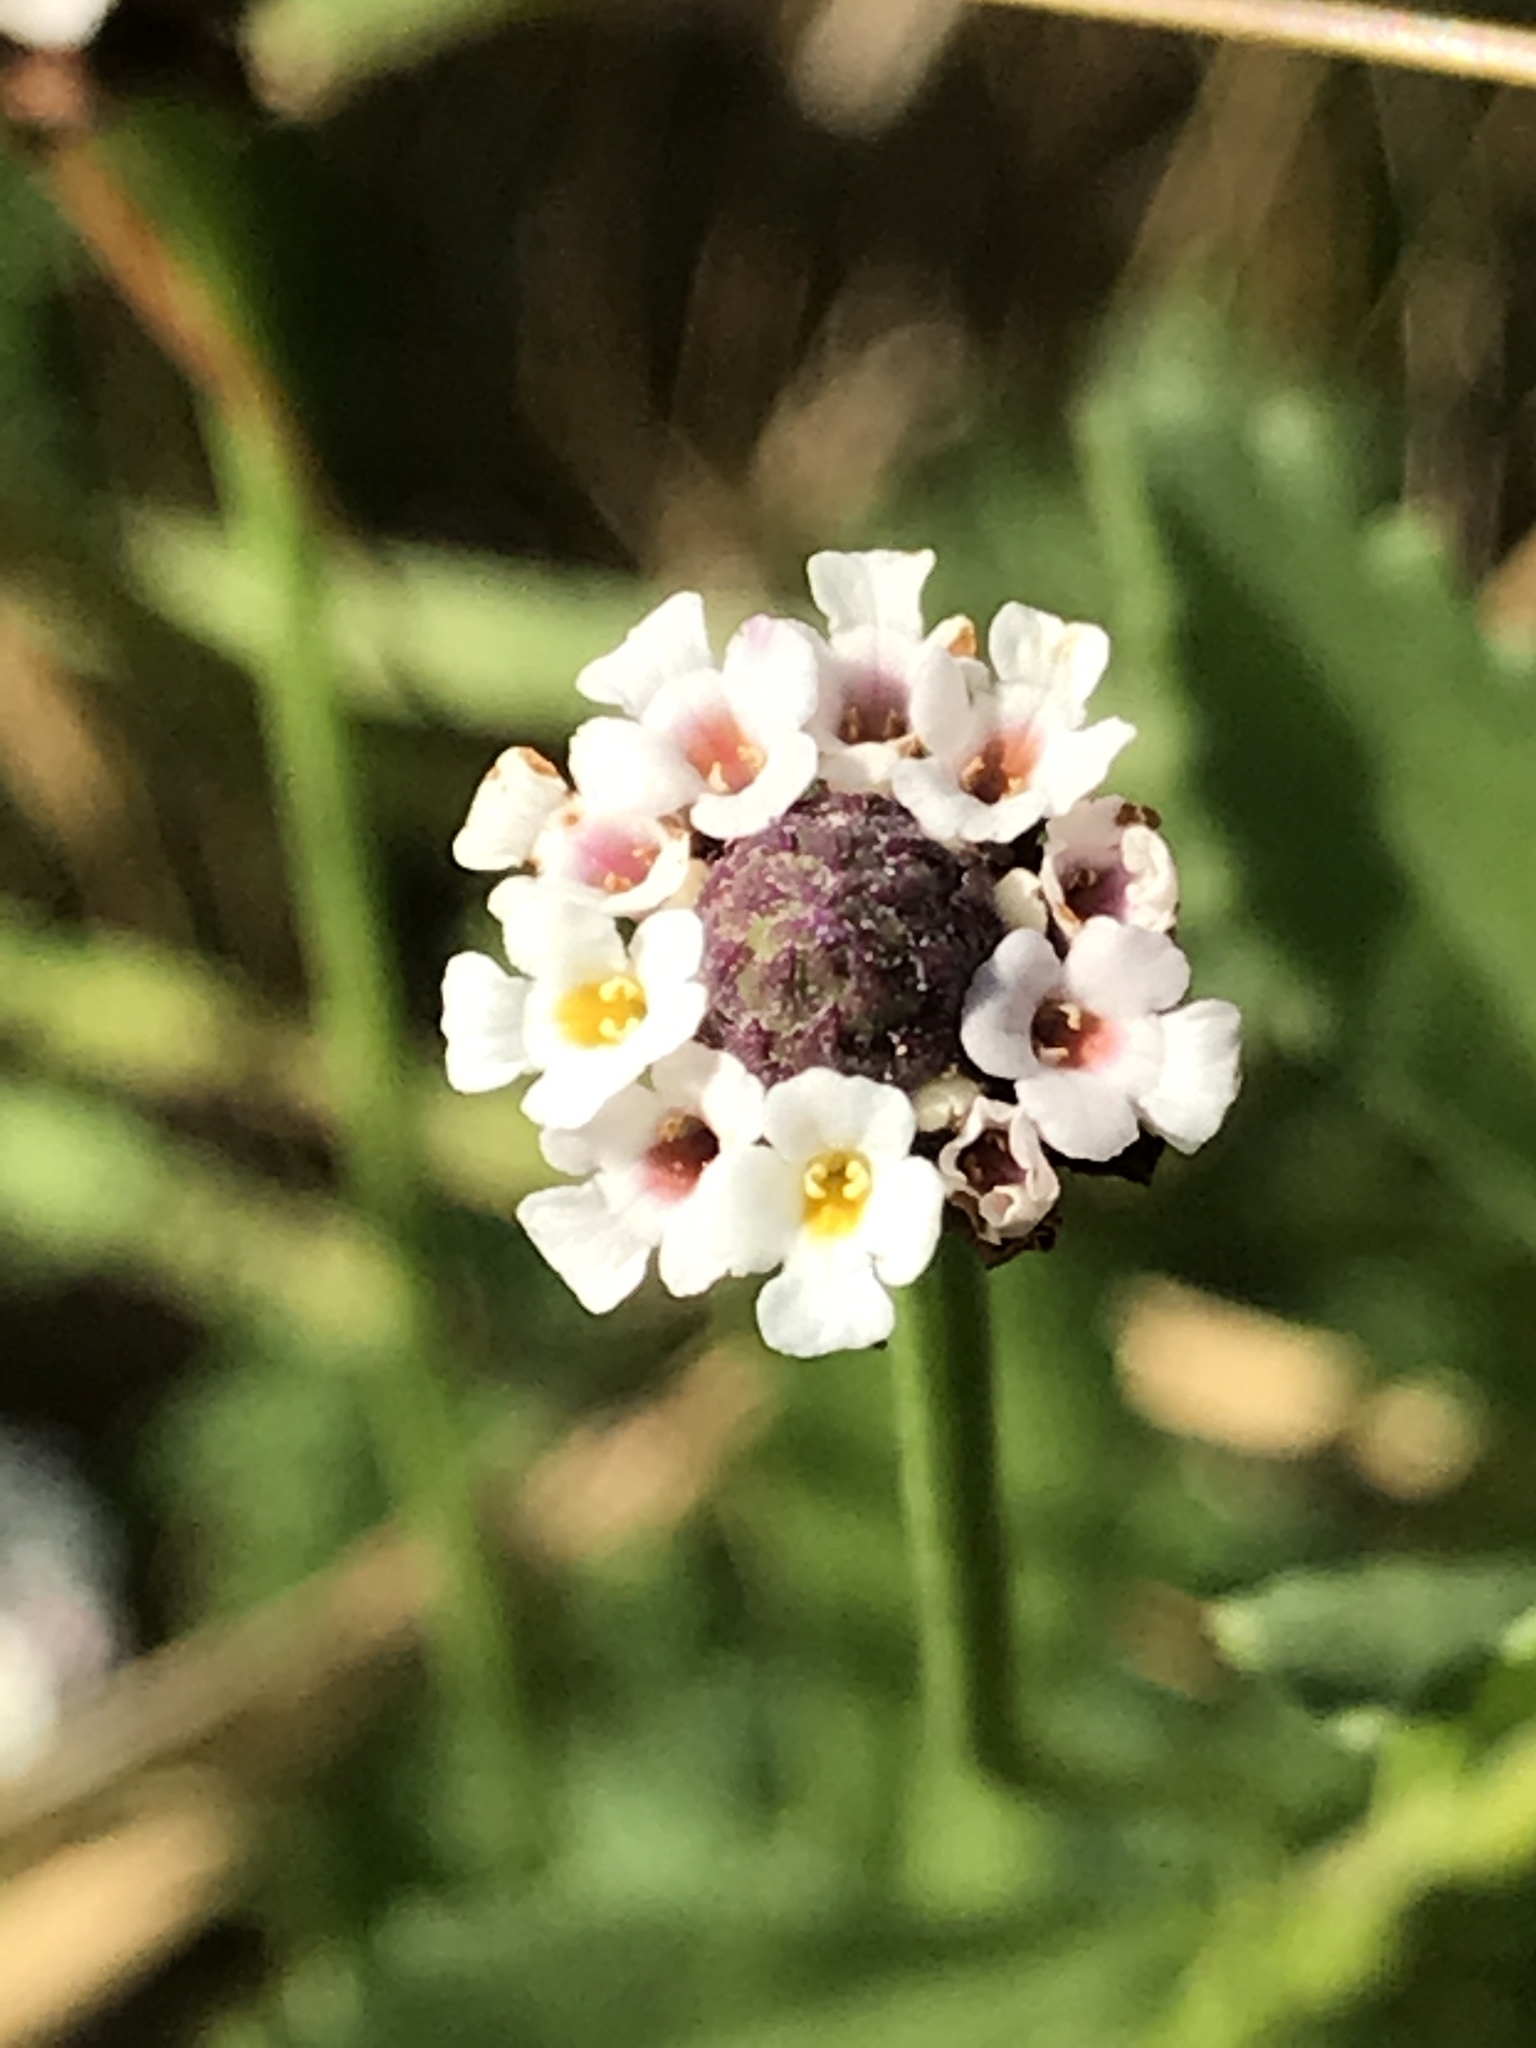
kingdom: Plantae
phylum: Tracheophyta
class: Magnoliopsida
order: Lamiales
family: Verbenaceae
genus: Phyla
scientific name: Phyla nodiflora
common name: Frogfruit
